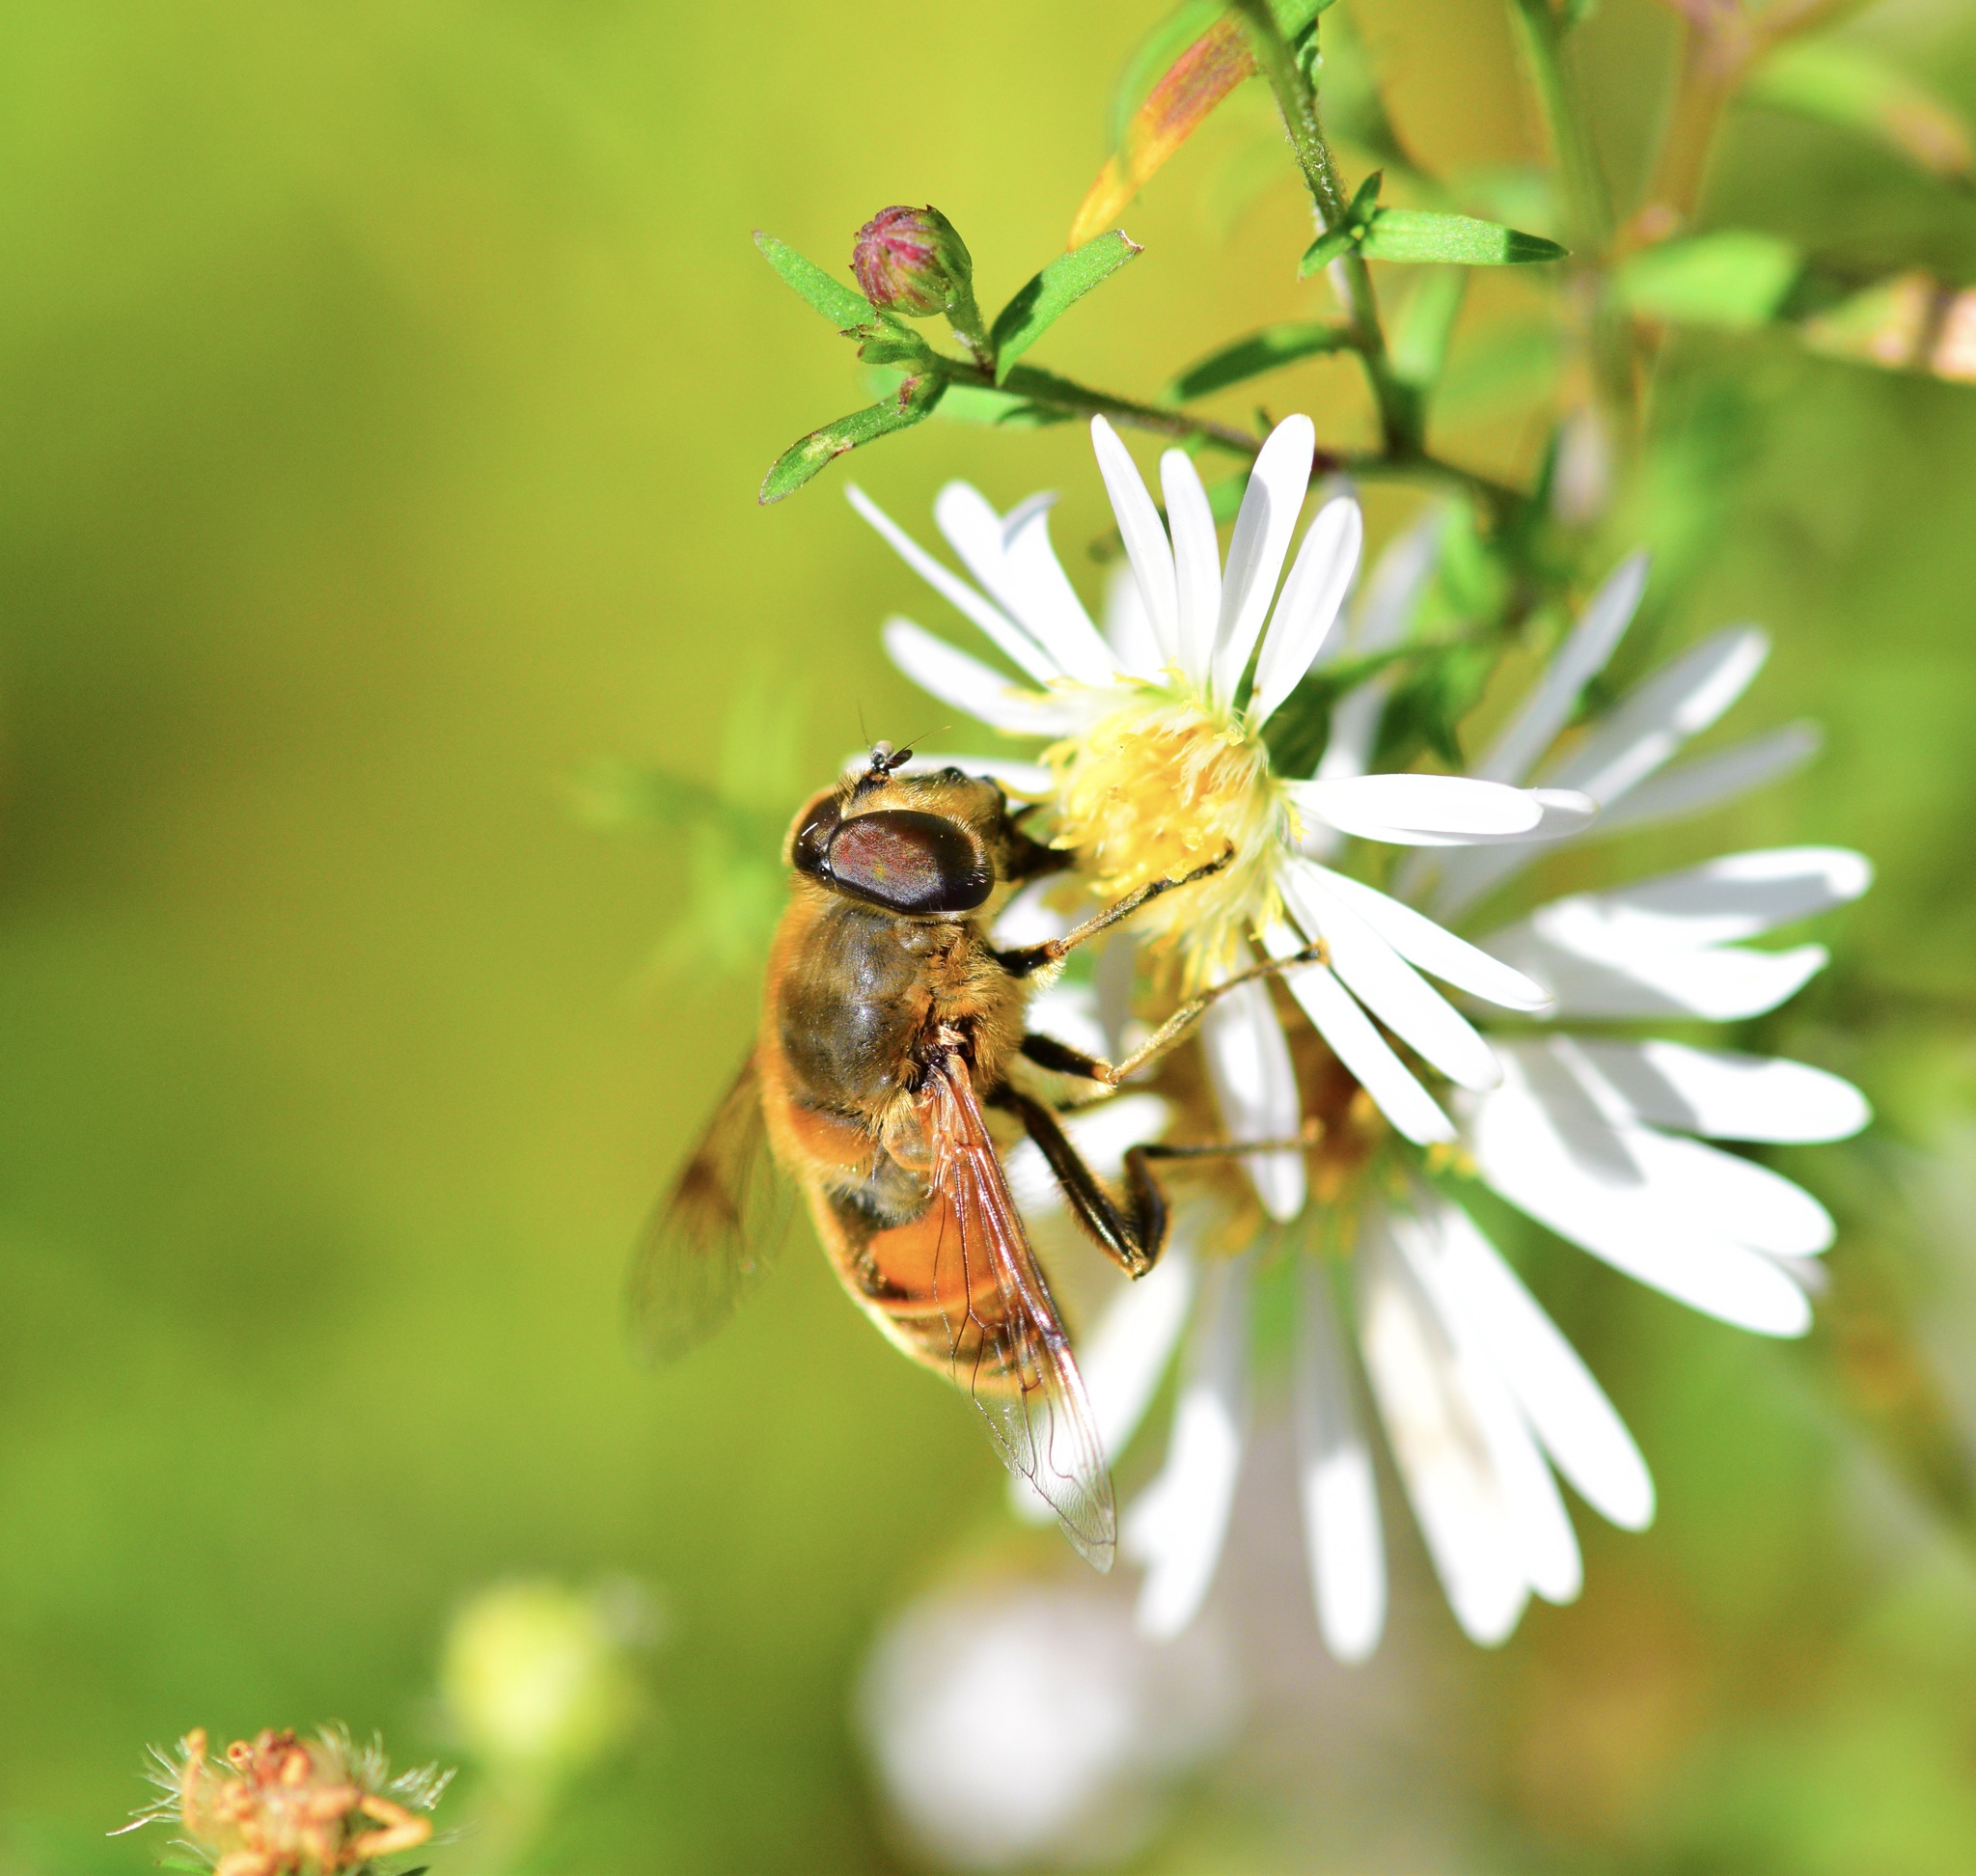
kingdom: Animalia
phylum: Arthropoda
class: Insecta
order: Diptera
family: Syrphidae
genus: Eristalis
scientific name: Eristalis tenax
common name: Drone fly
